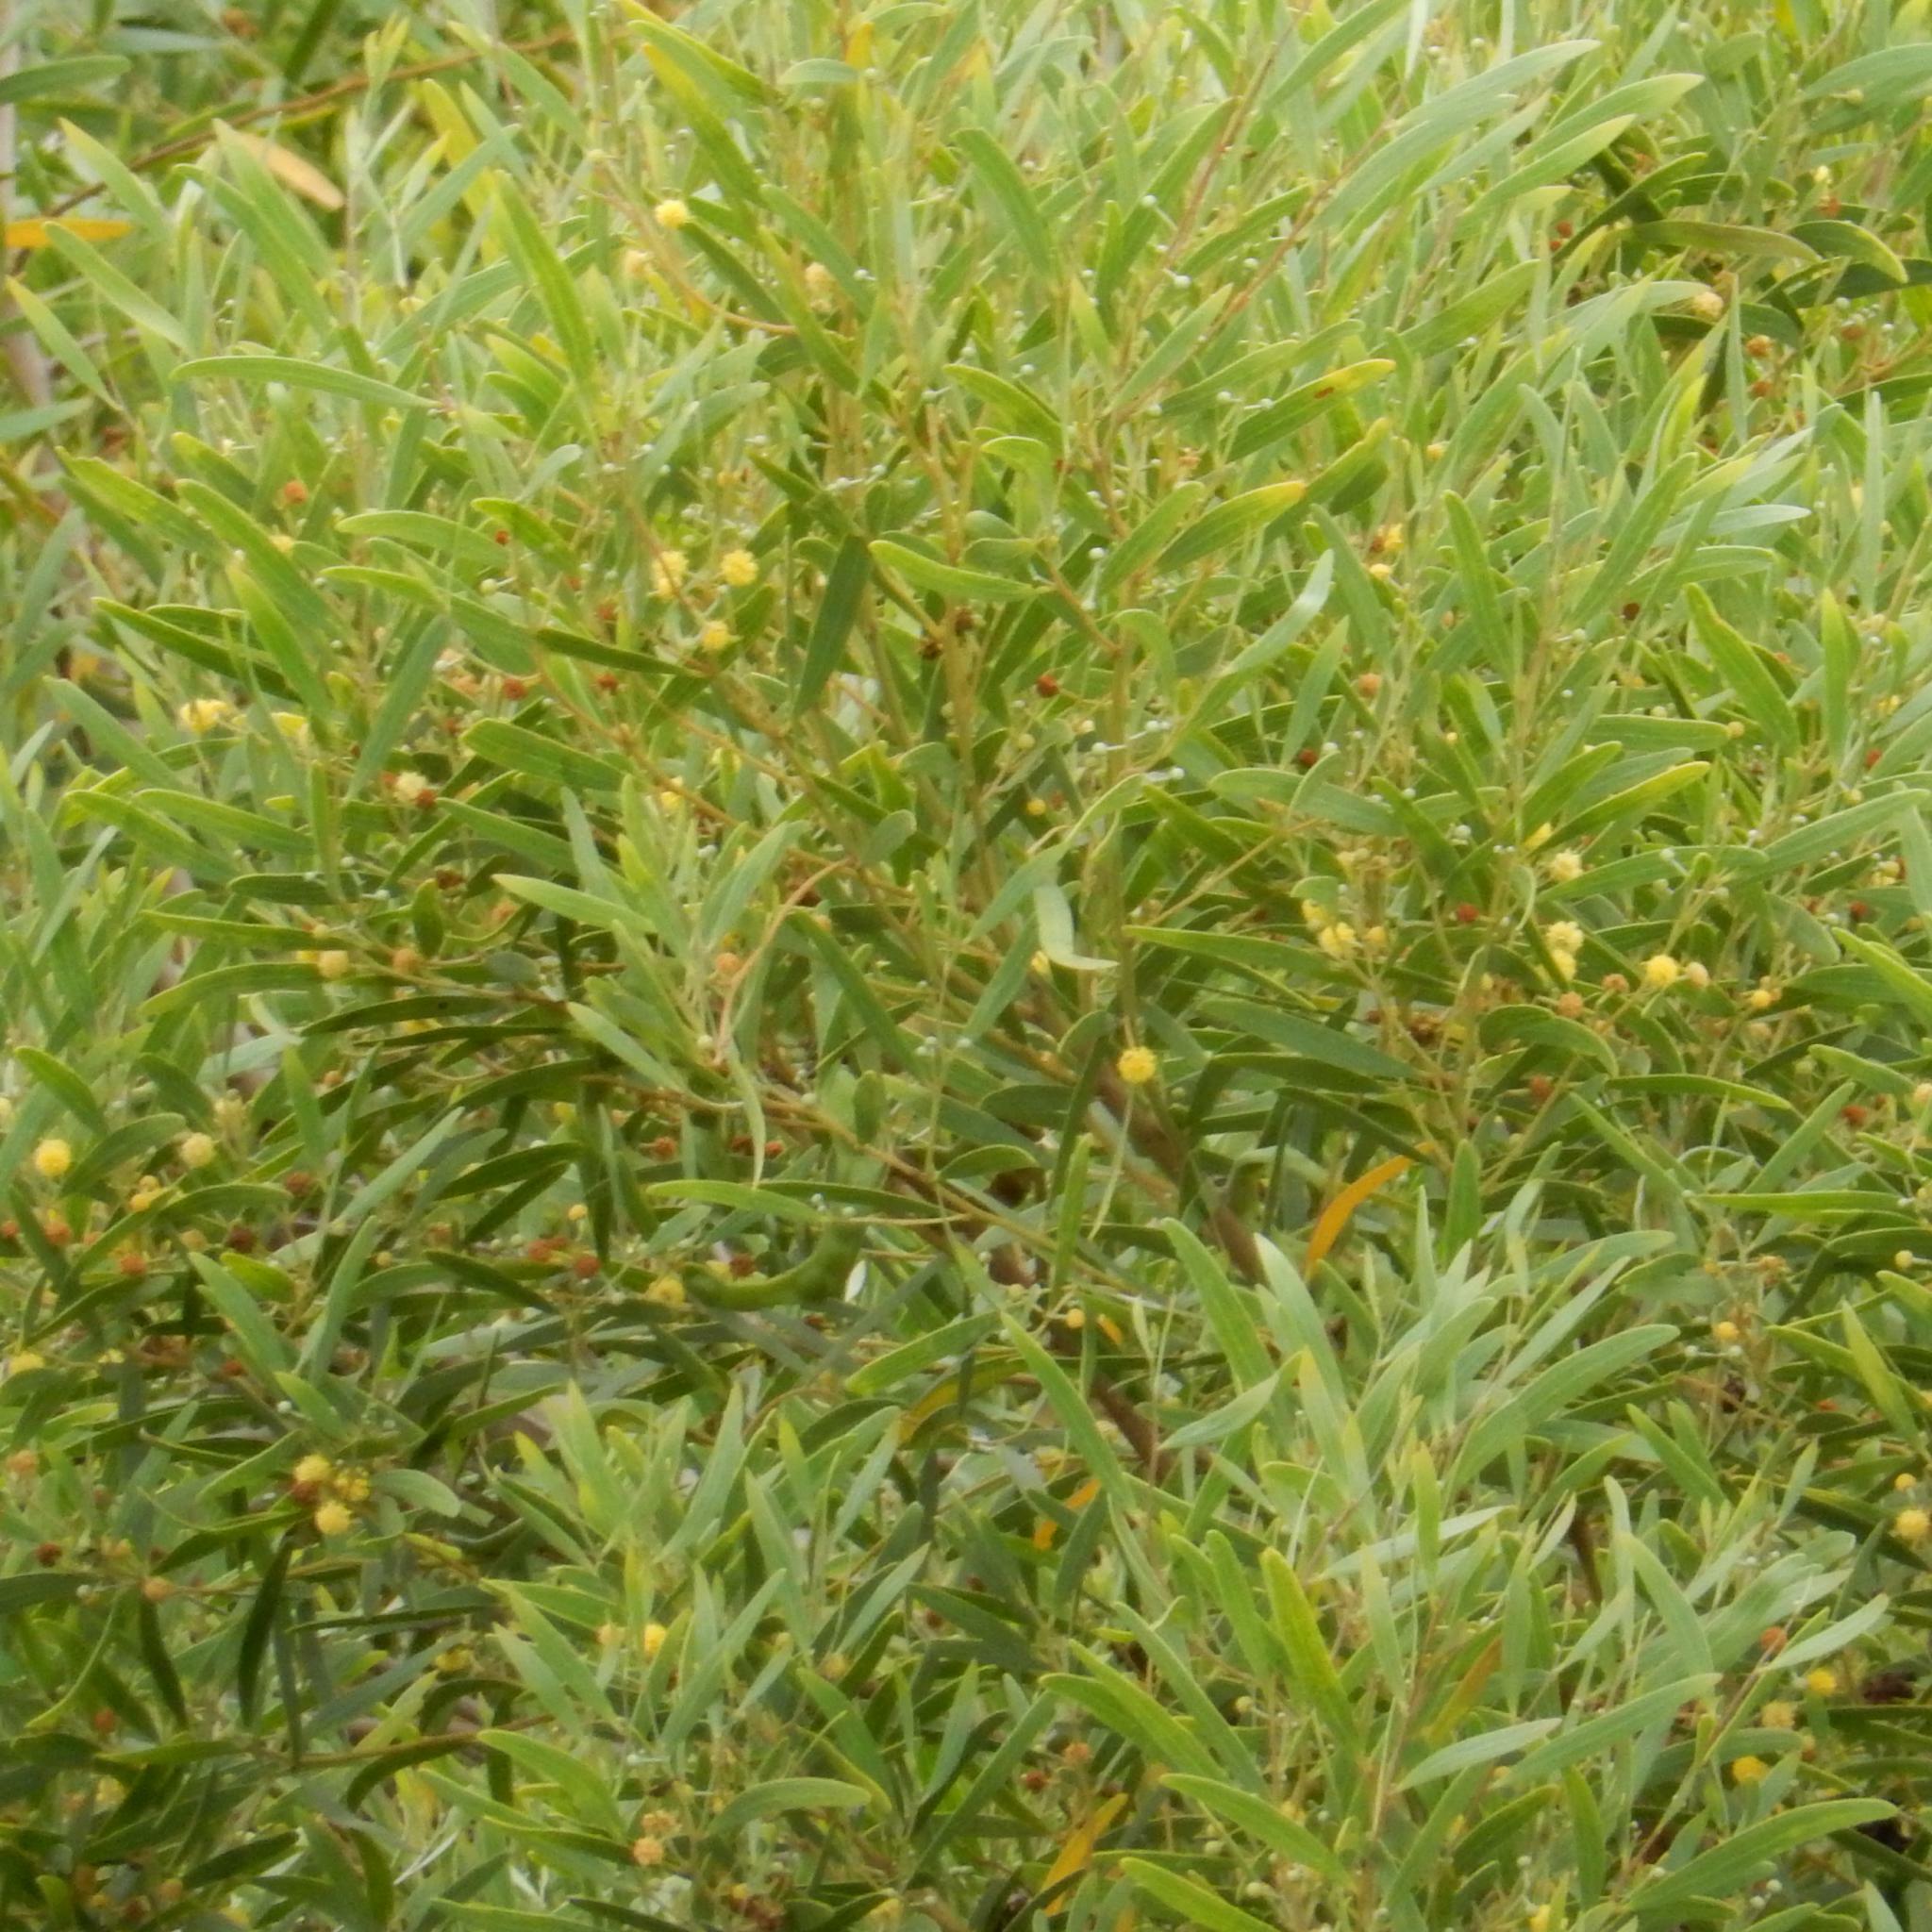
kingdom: Plantae
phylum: Tracheophyta
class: Magnoliopsida
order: Fabales
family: Fabaceae
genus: Acacia
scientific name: Acacia cyclops
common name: Coastal wattle
